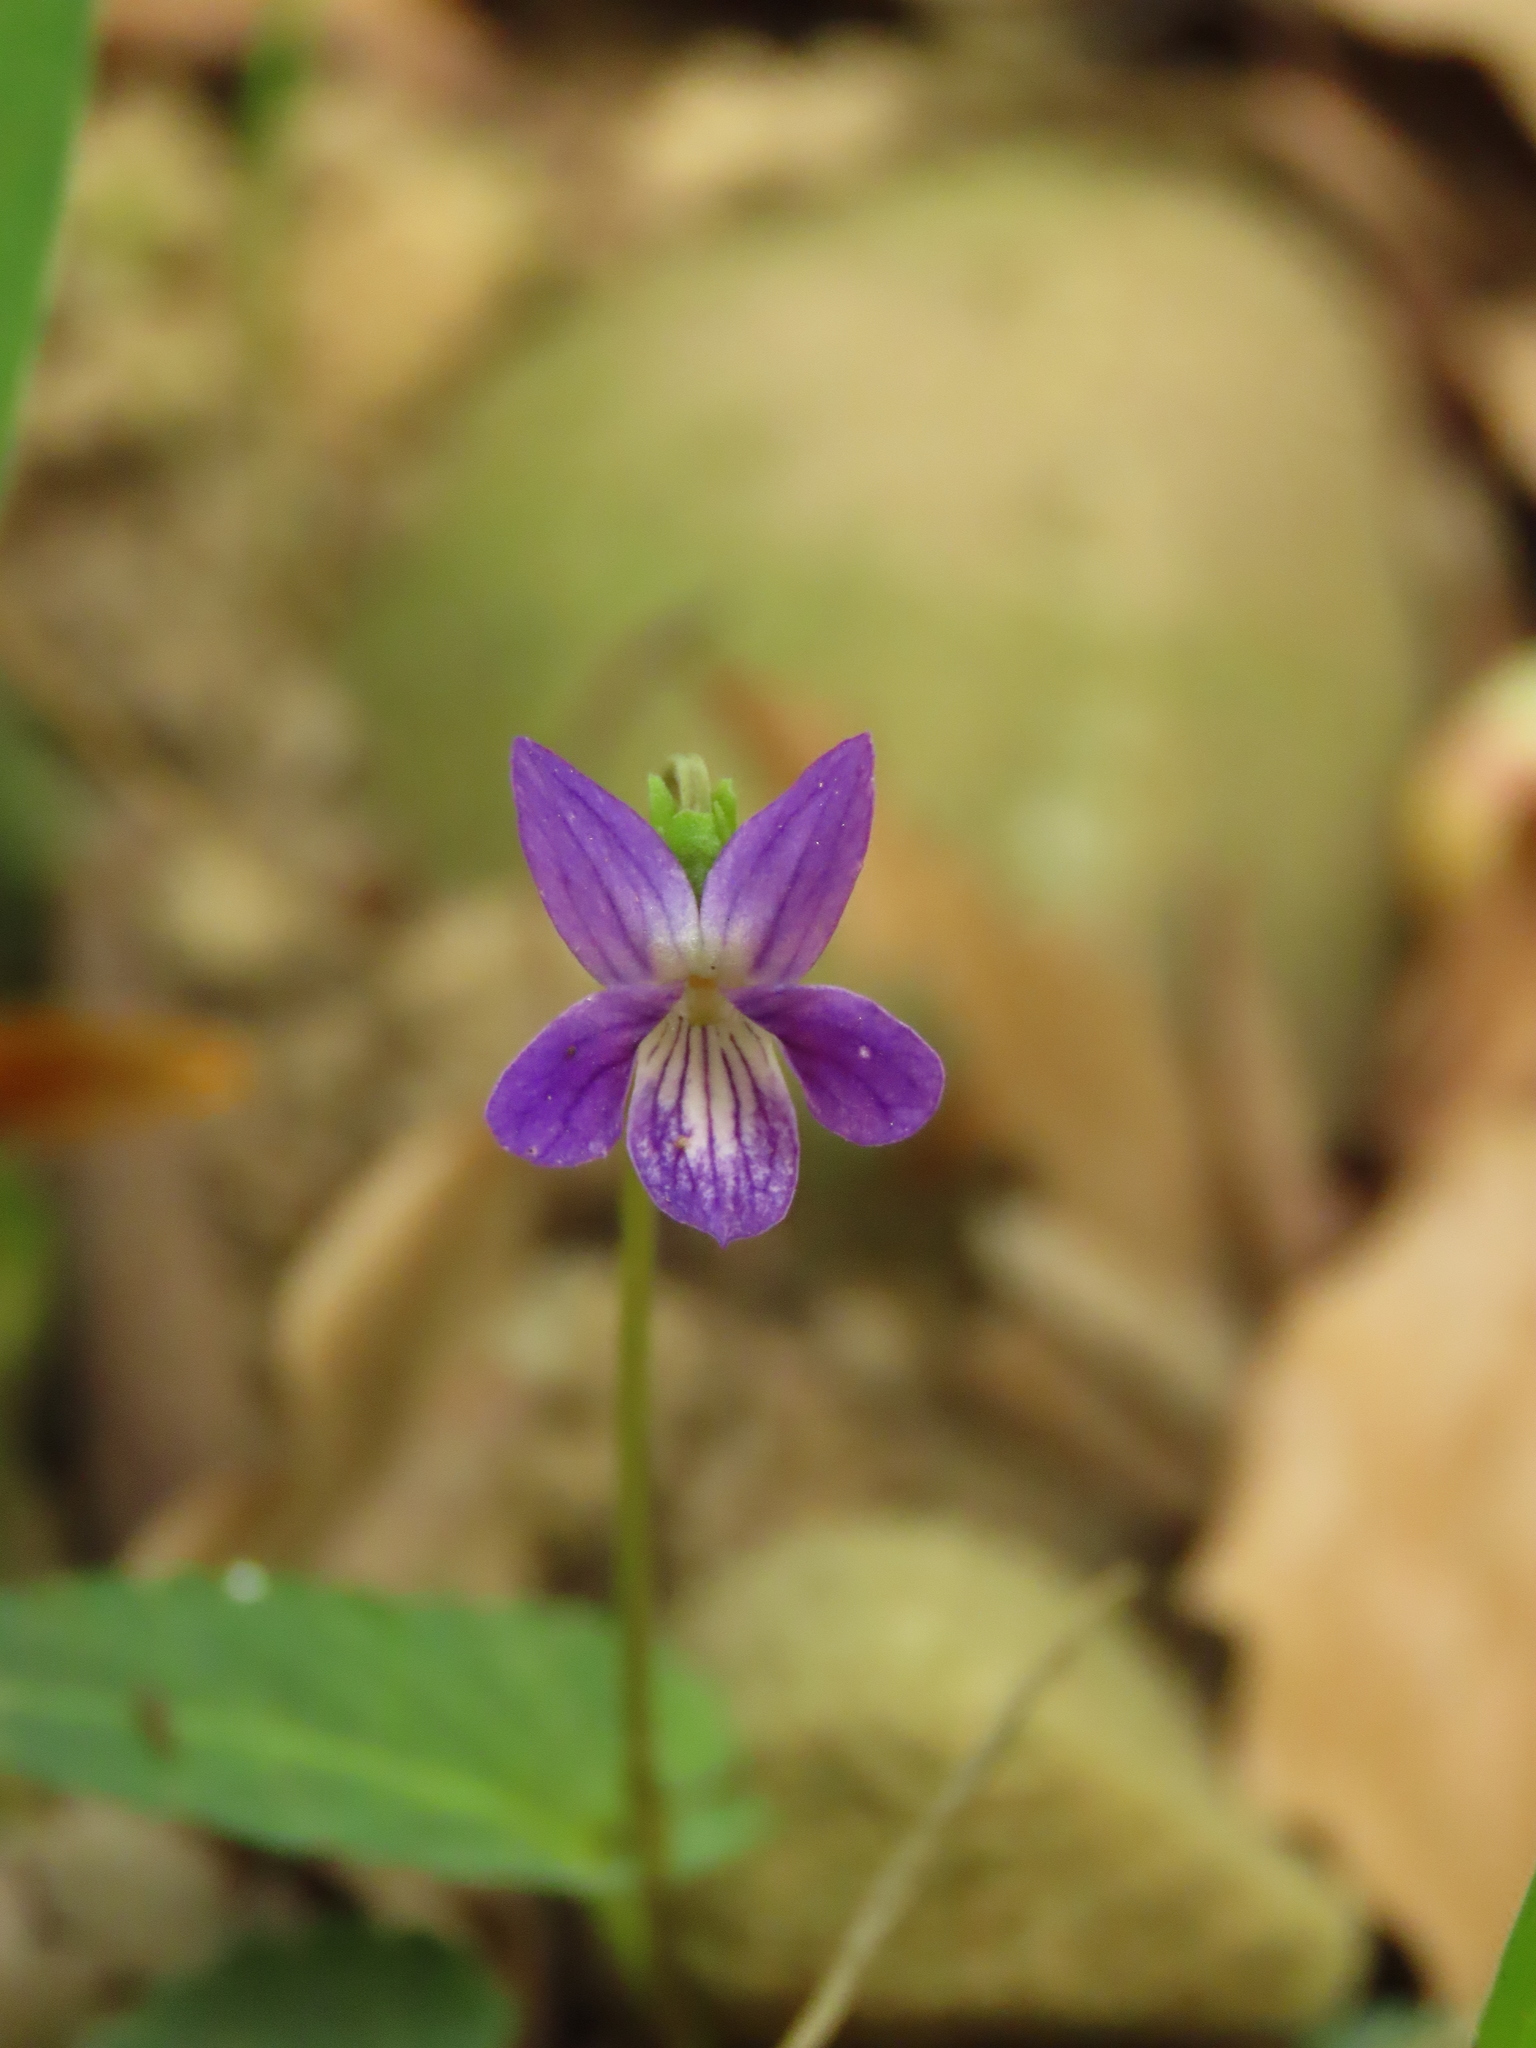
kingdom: Plantae
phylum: Tracheophyta
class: Magnoliopsida
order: Malpighiales
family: Violaceae
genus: Viola
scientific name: Viola inconspicua
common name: Long sepal violet
